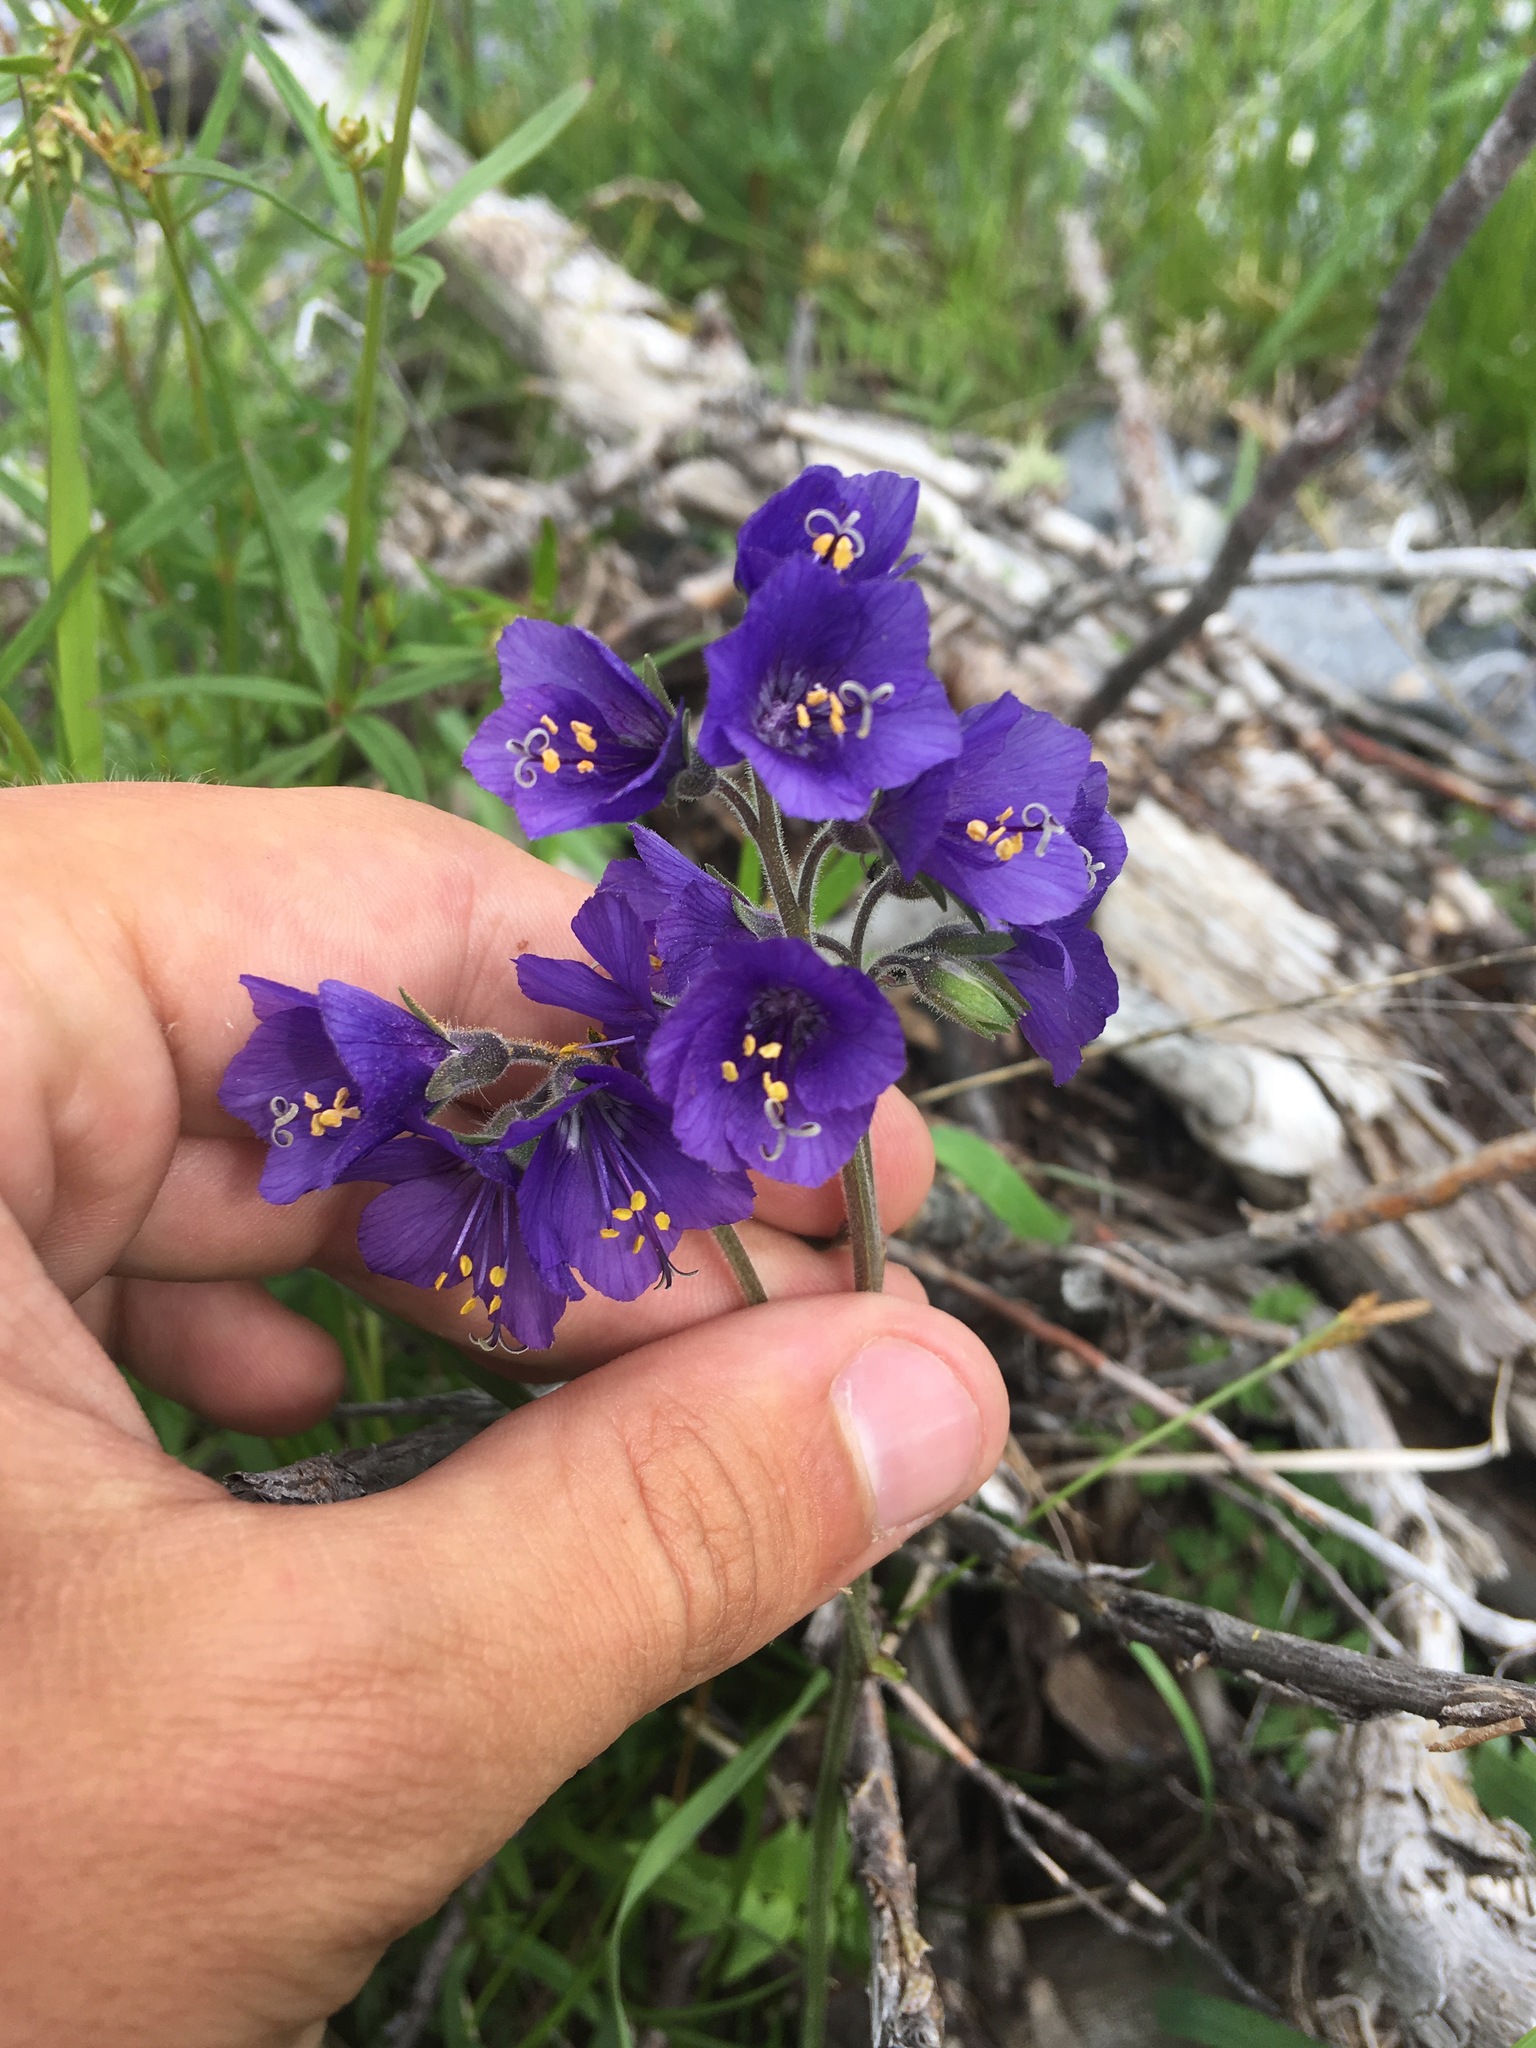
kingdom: Plantae
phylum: Tracheophyta
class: Magnoliopsida
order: Ericales
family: Polemoniaceae
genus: Polemonium
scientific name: Polemonium caeruleum
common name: Jacob's-ladder
